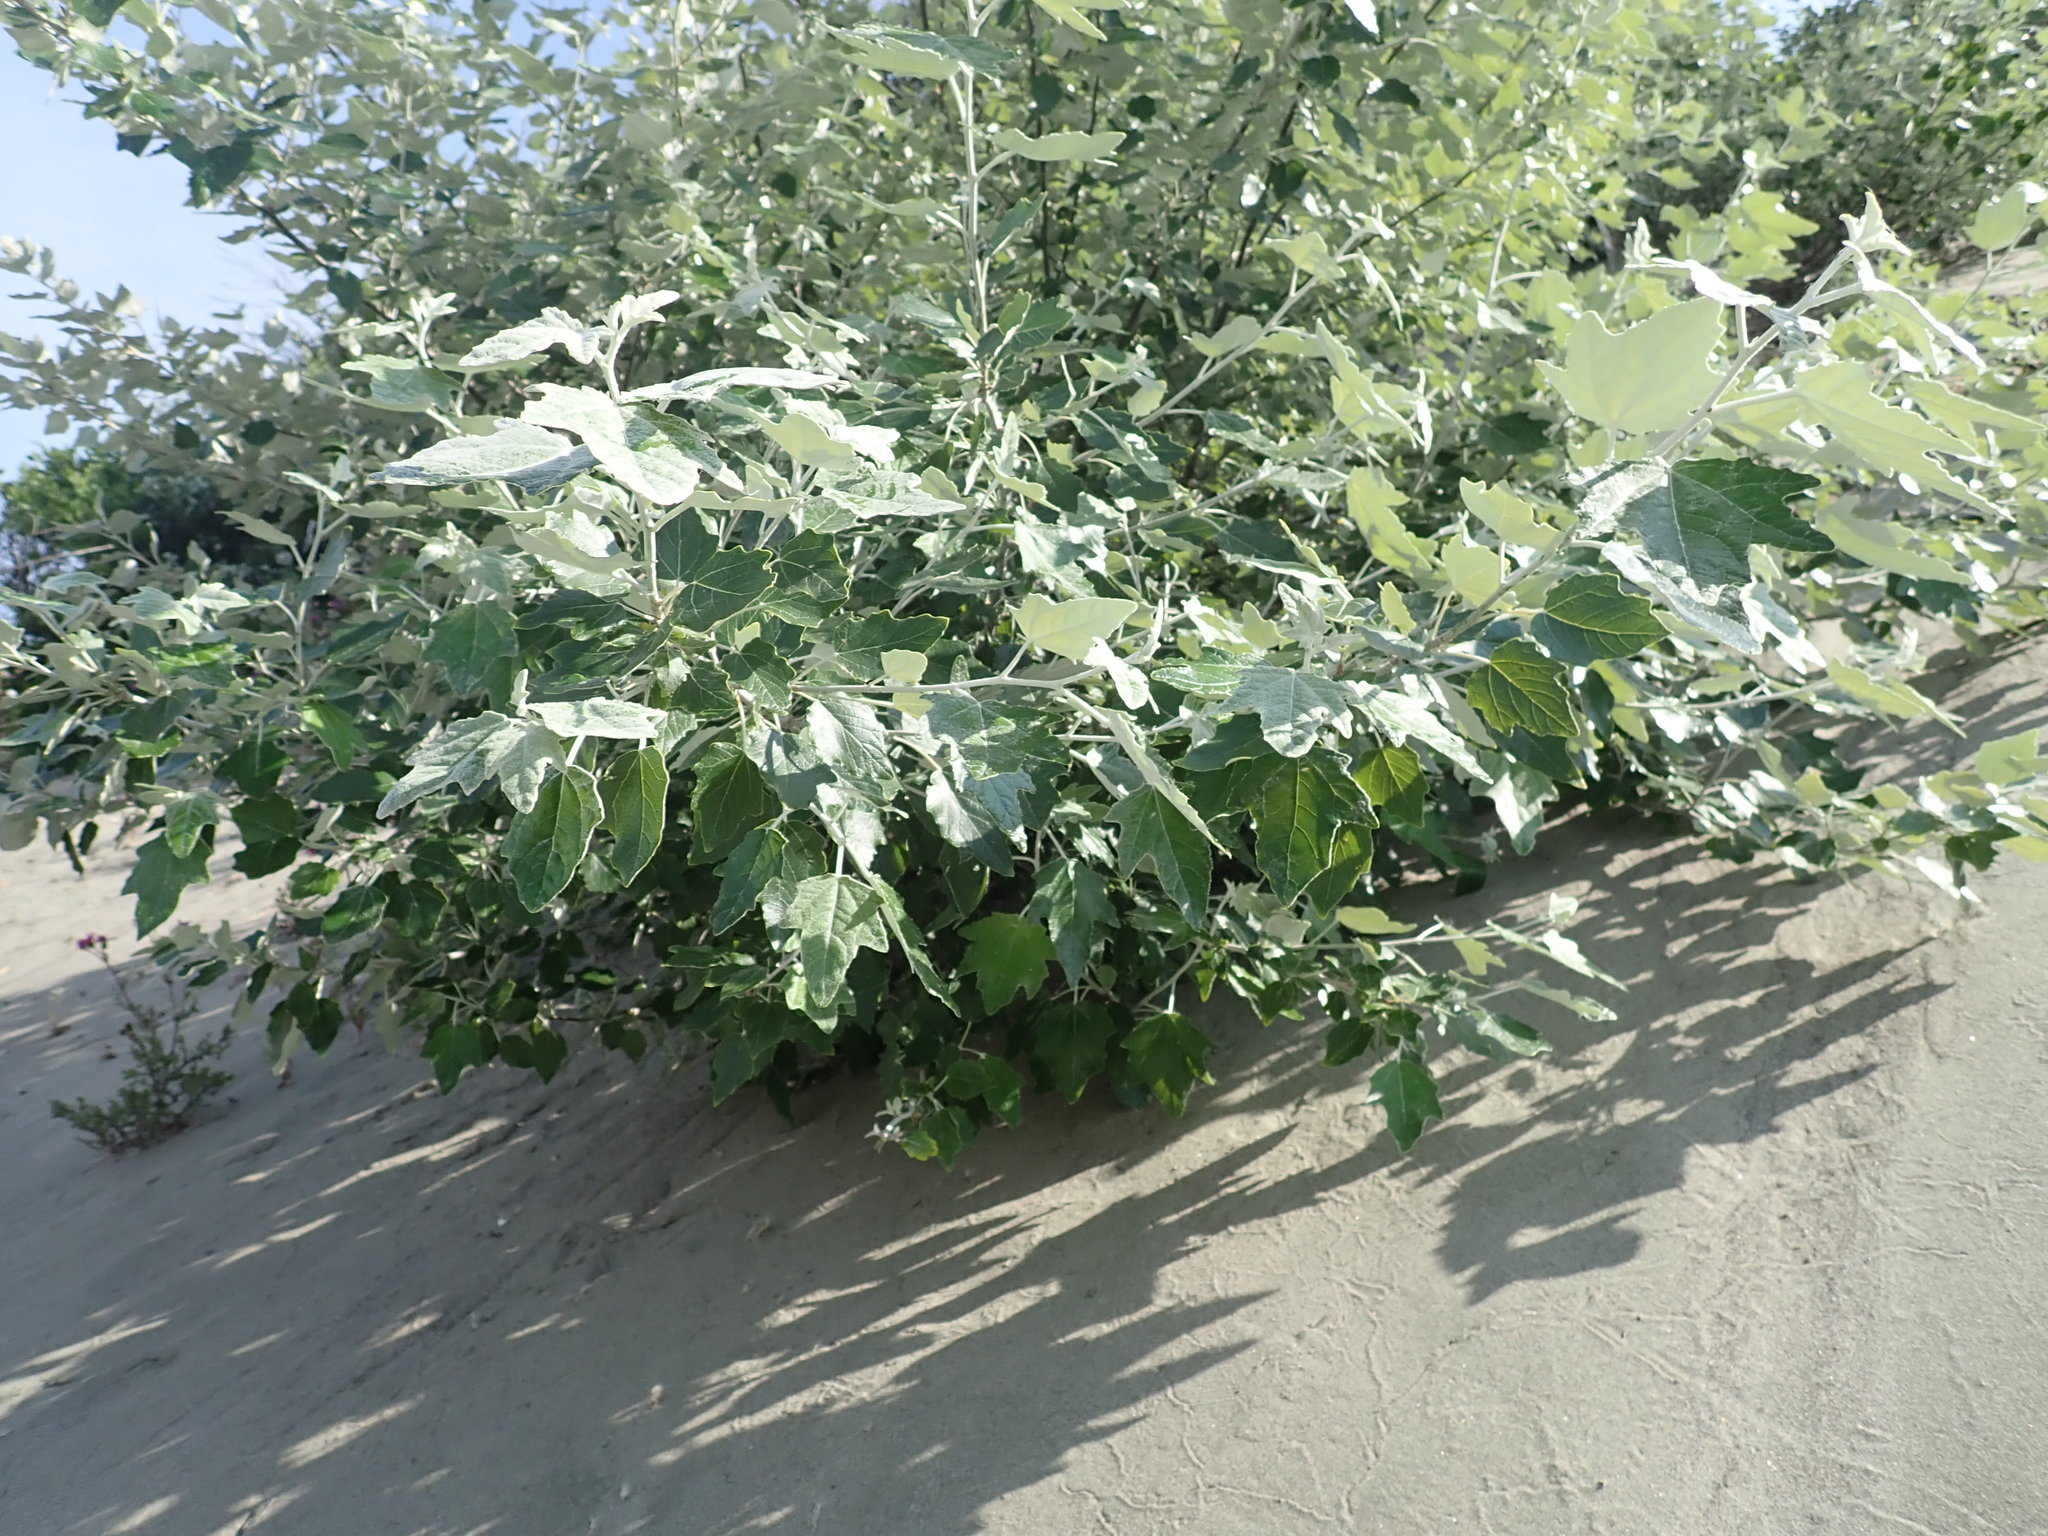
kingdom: Plantae
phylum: Tracheophyta
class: Magnoliopsida
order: Malpighiales
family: Salicaceae
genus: Populus
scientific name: Populus alba
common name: White poplar
